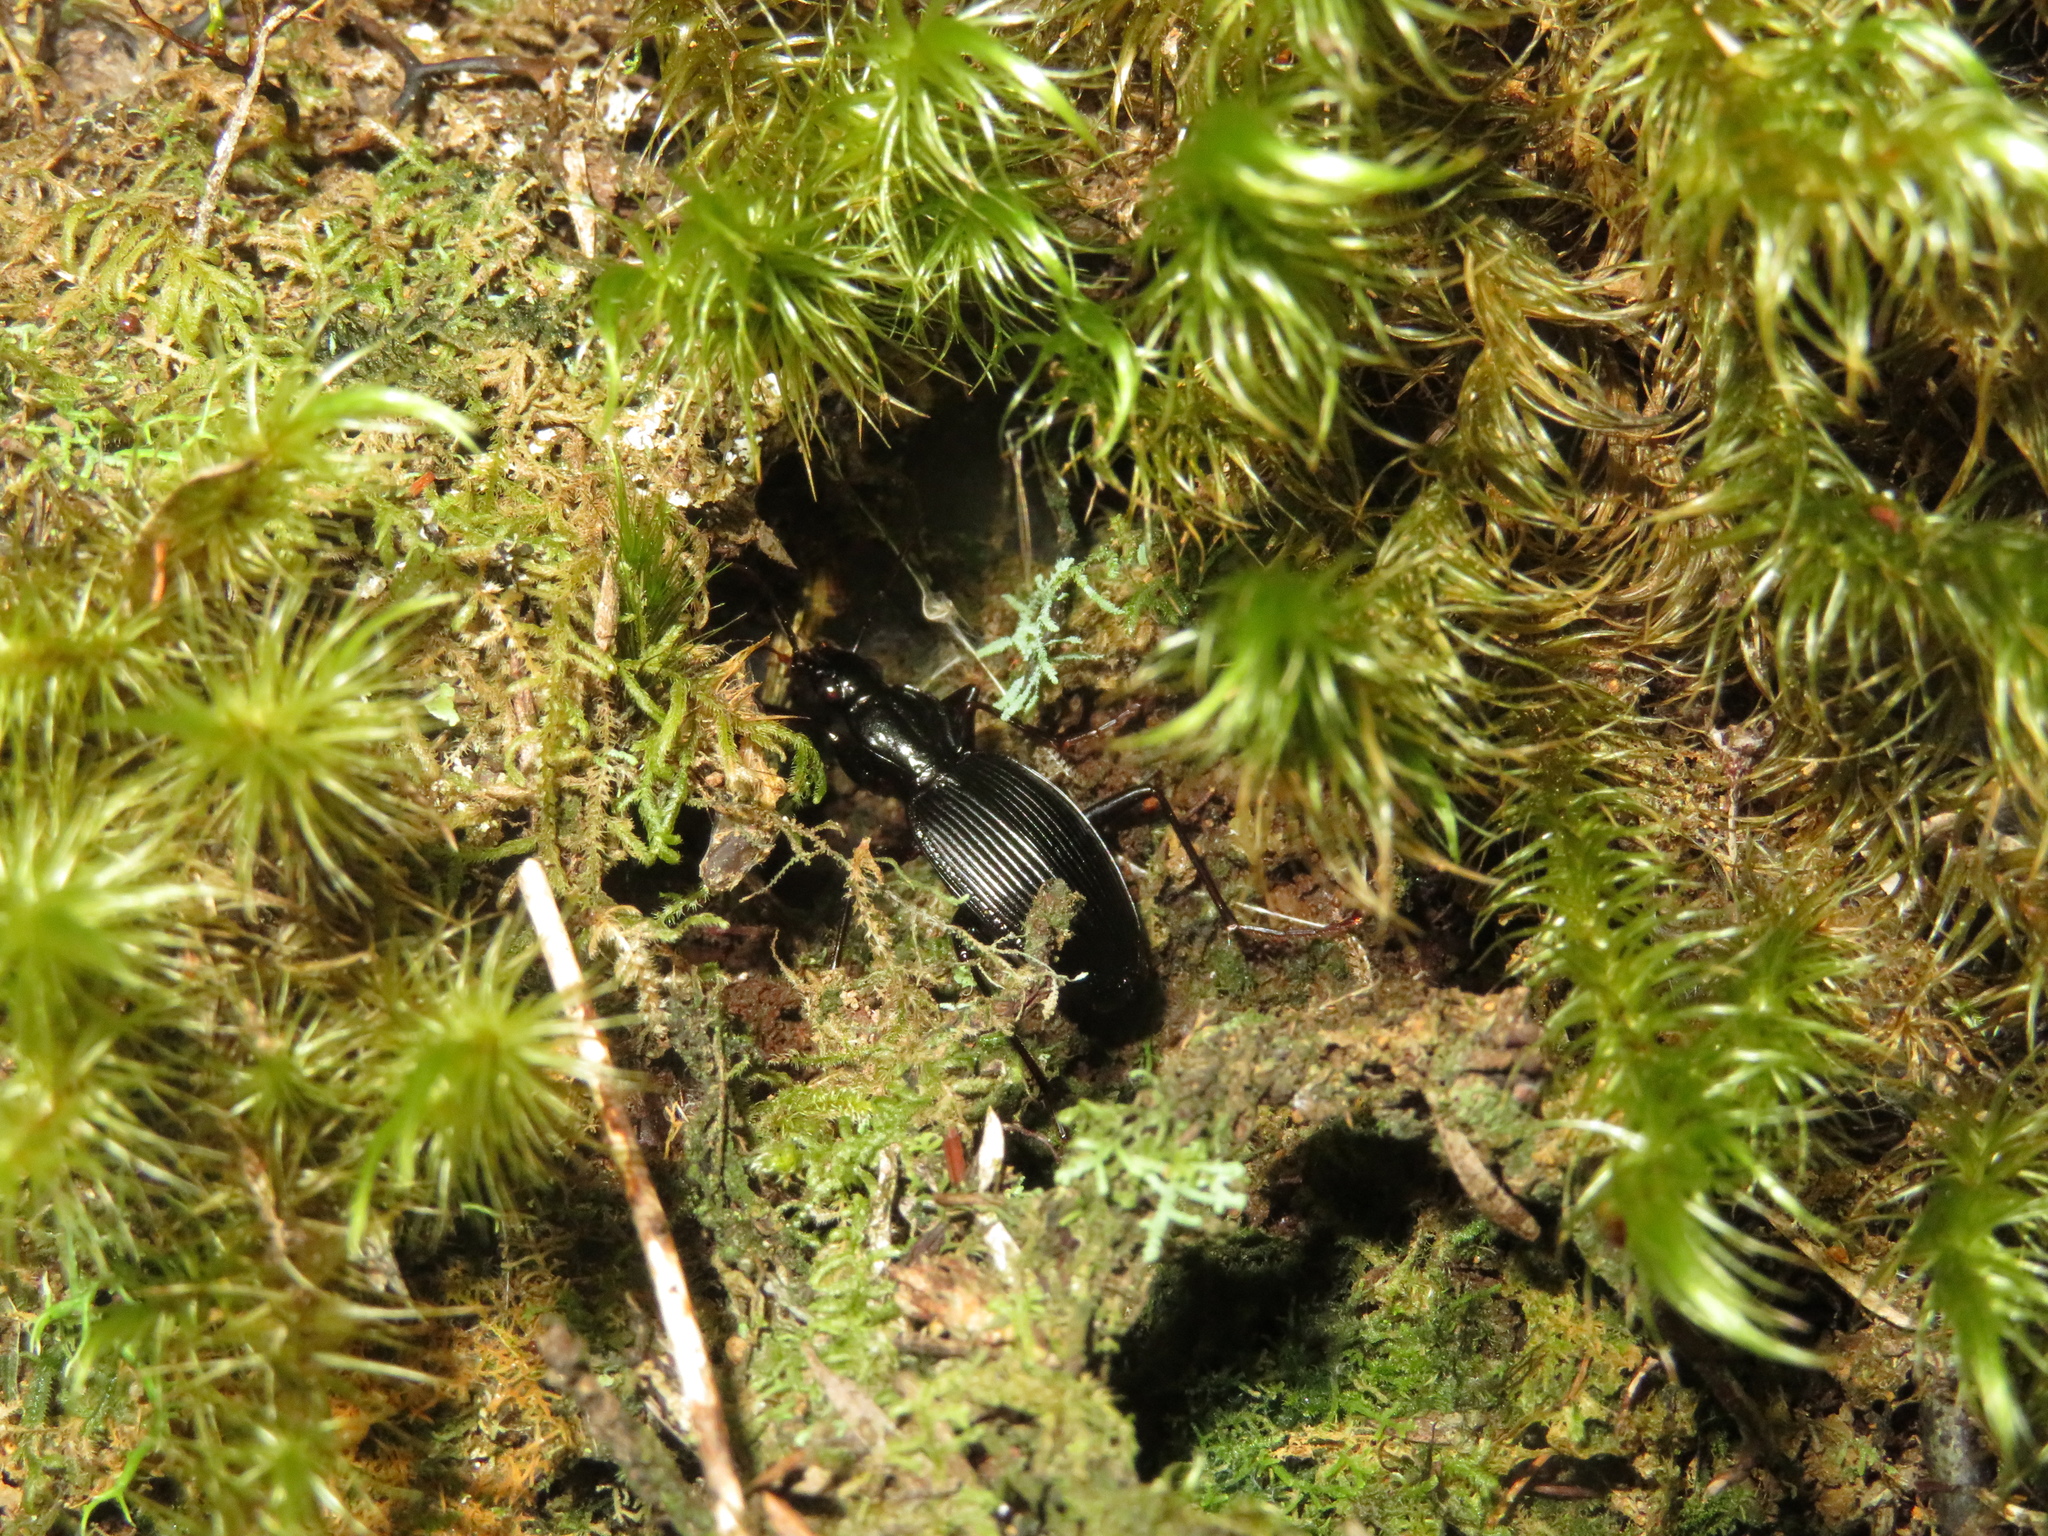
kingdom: Animalia
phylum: Arthropoda
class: Insecta
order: Coleoptera
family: Carabidae
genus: Kiwiplatynus
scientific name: Kiwiplatynus bidens
